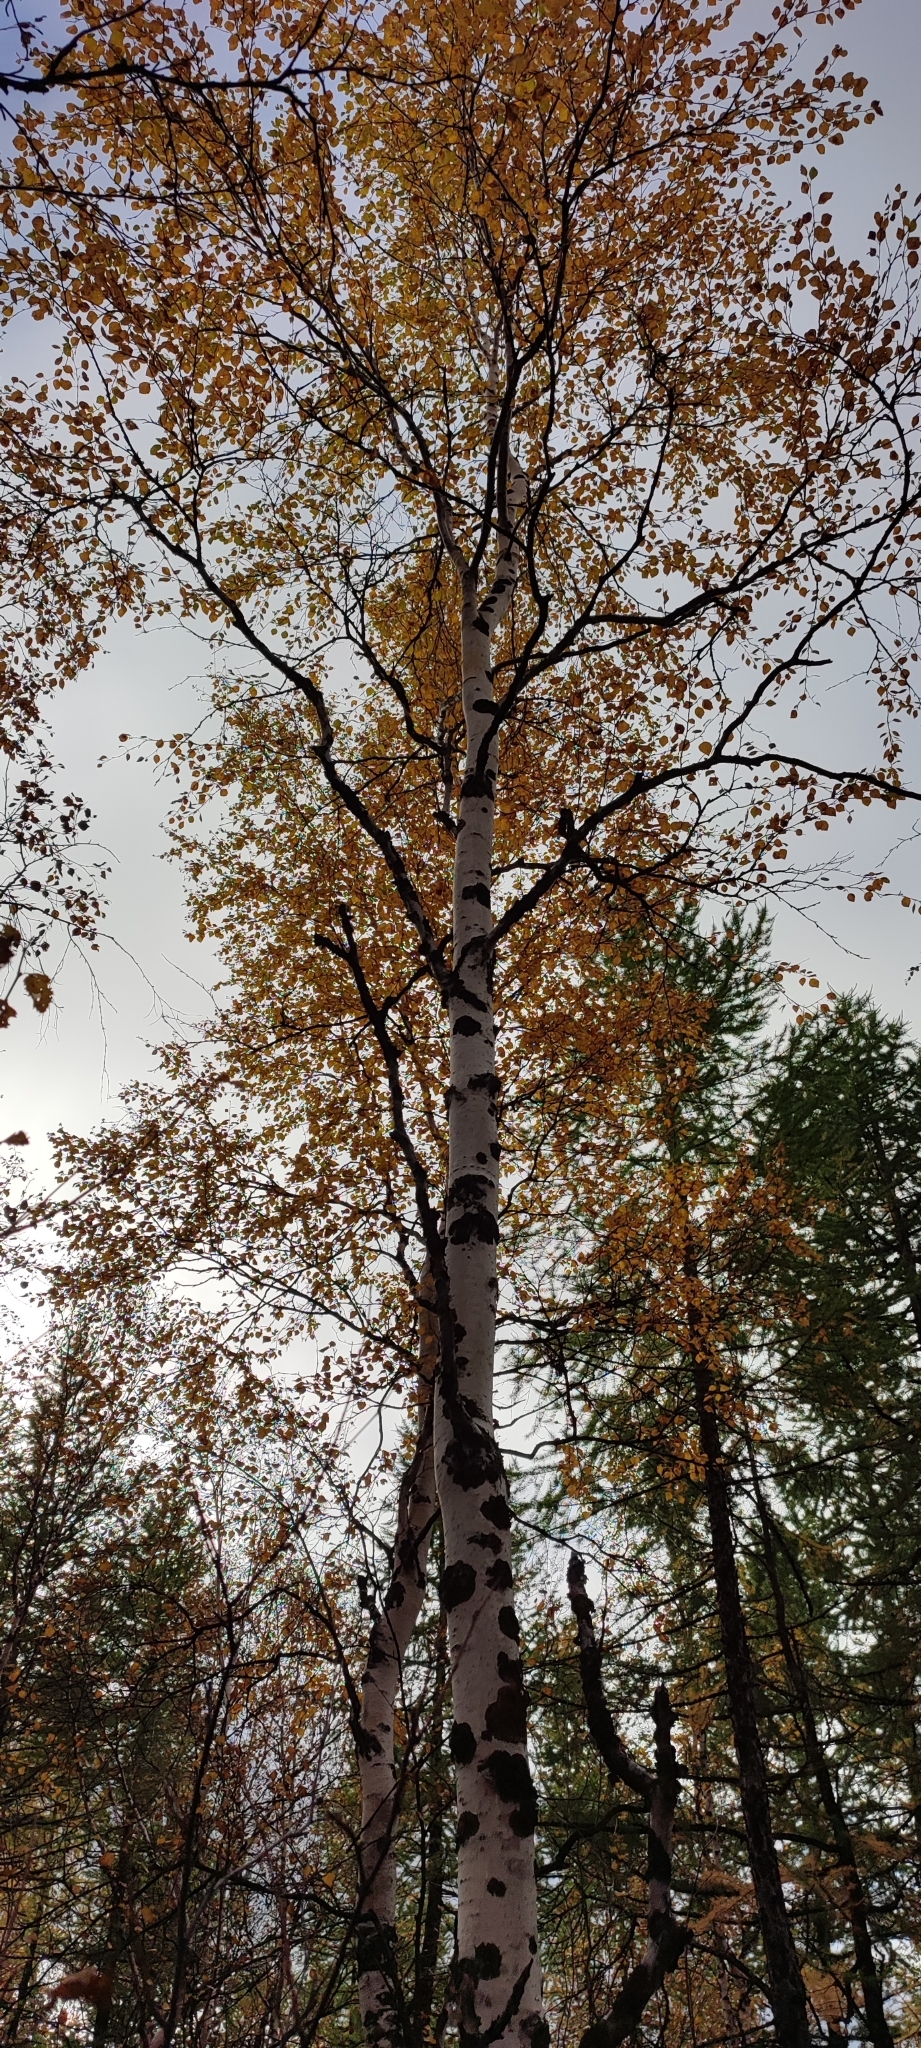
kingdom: Plantae
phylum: Tracheophyta
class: Magnoliopsida
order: Fagales
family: Betulaceae
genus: Betula
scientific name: Betula pubescens
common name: Downy birch
